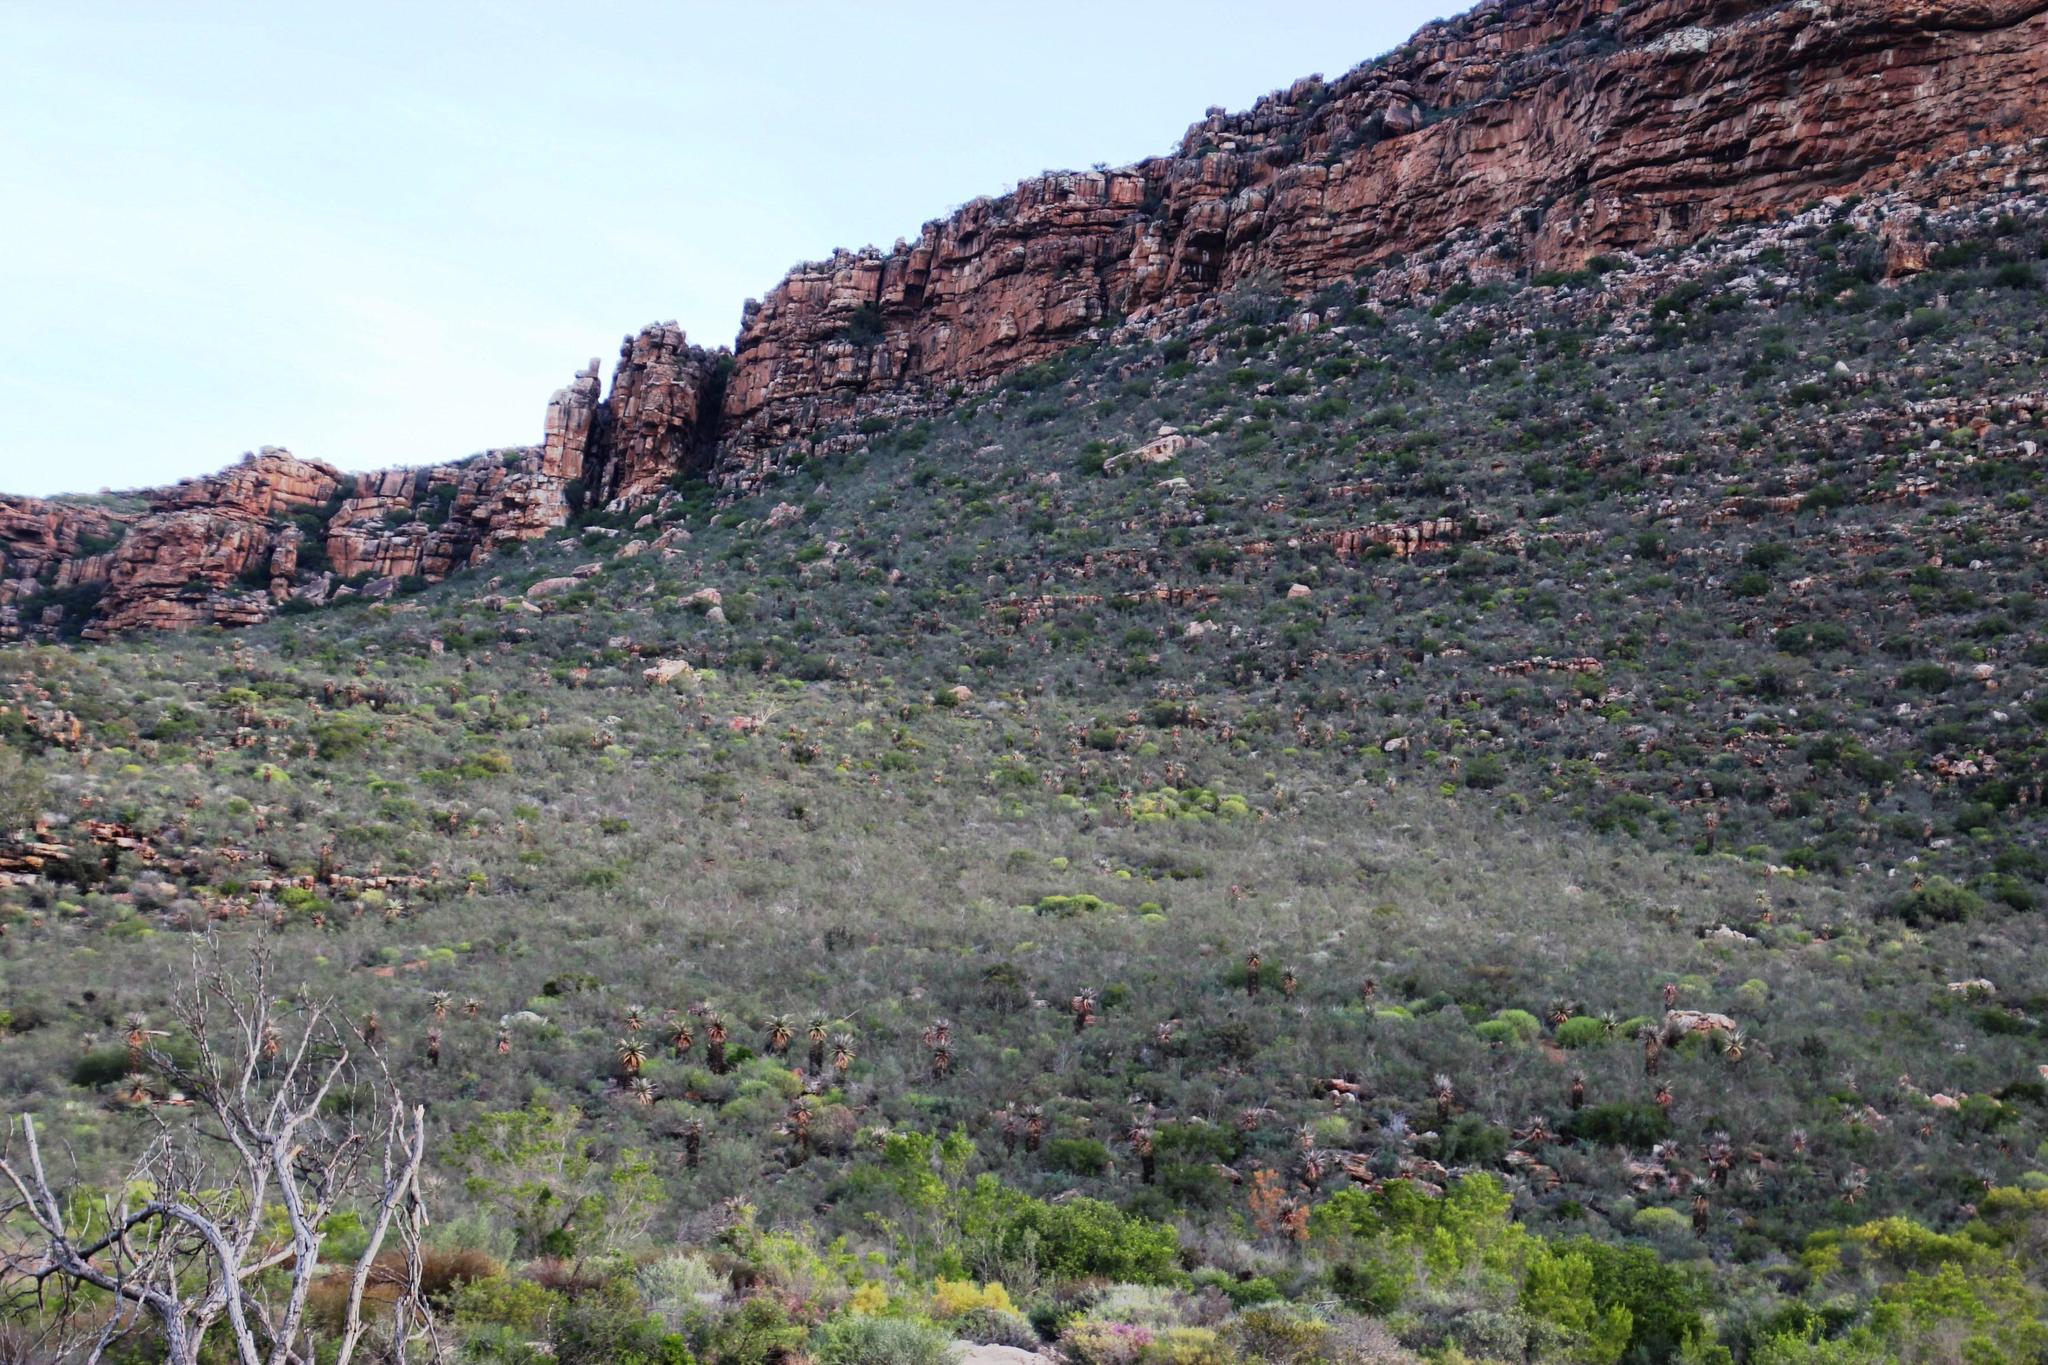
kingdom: Plantae
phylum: Tracheophyta
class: Liliopsida
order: Asparagales
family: Asphodelaceae
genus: Aloe
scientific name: Aloe comosa
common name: Clanwilliam aloe
